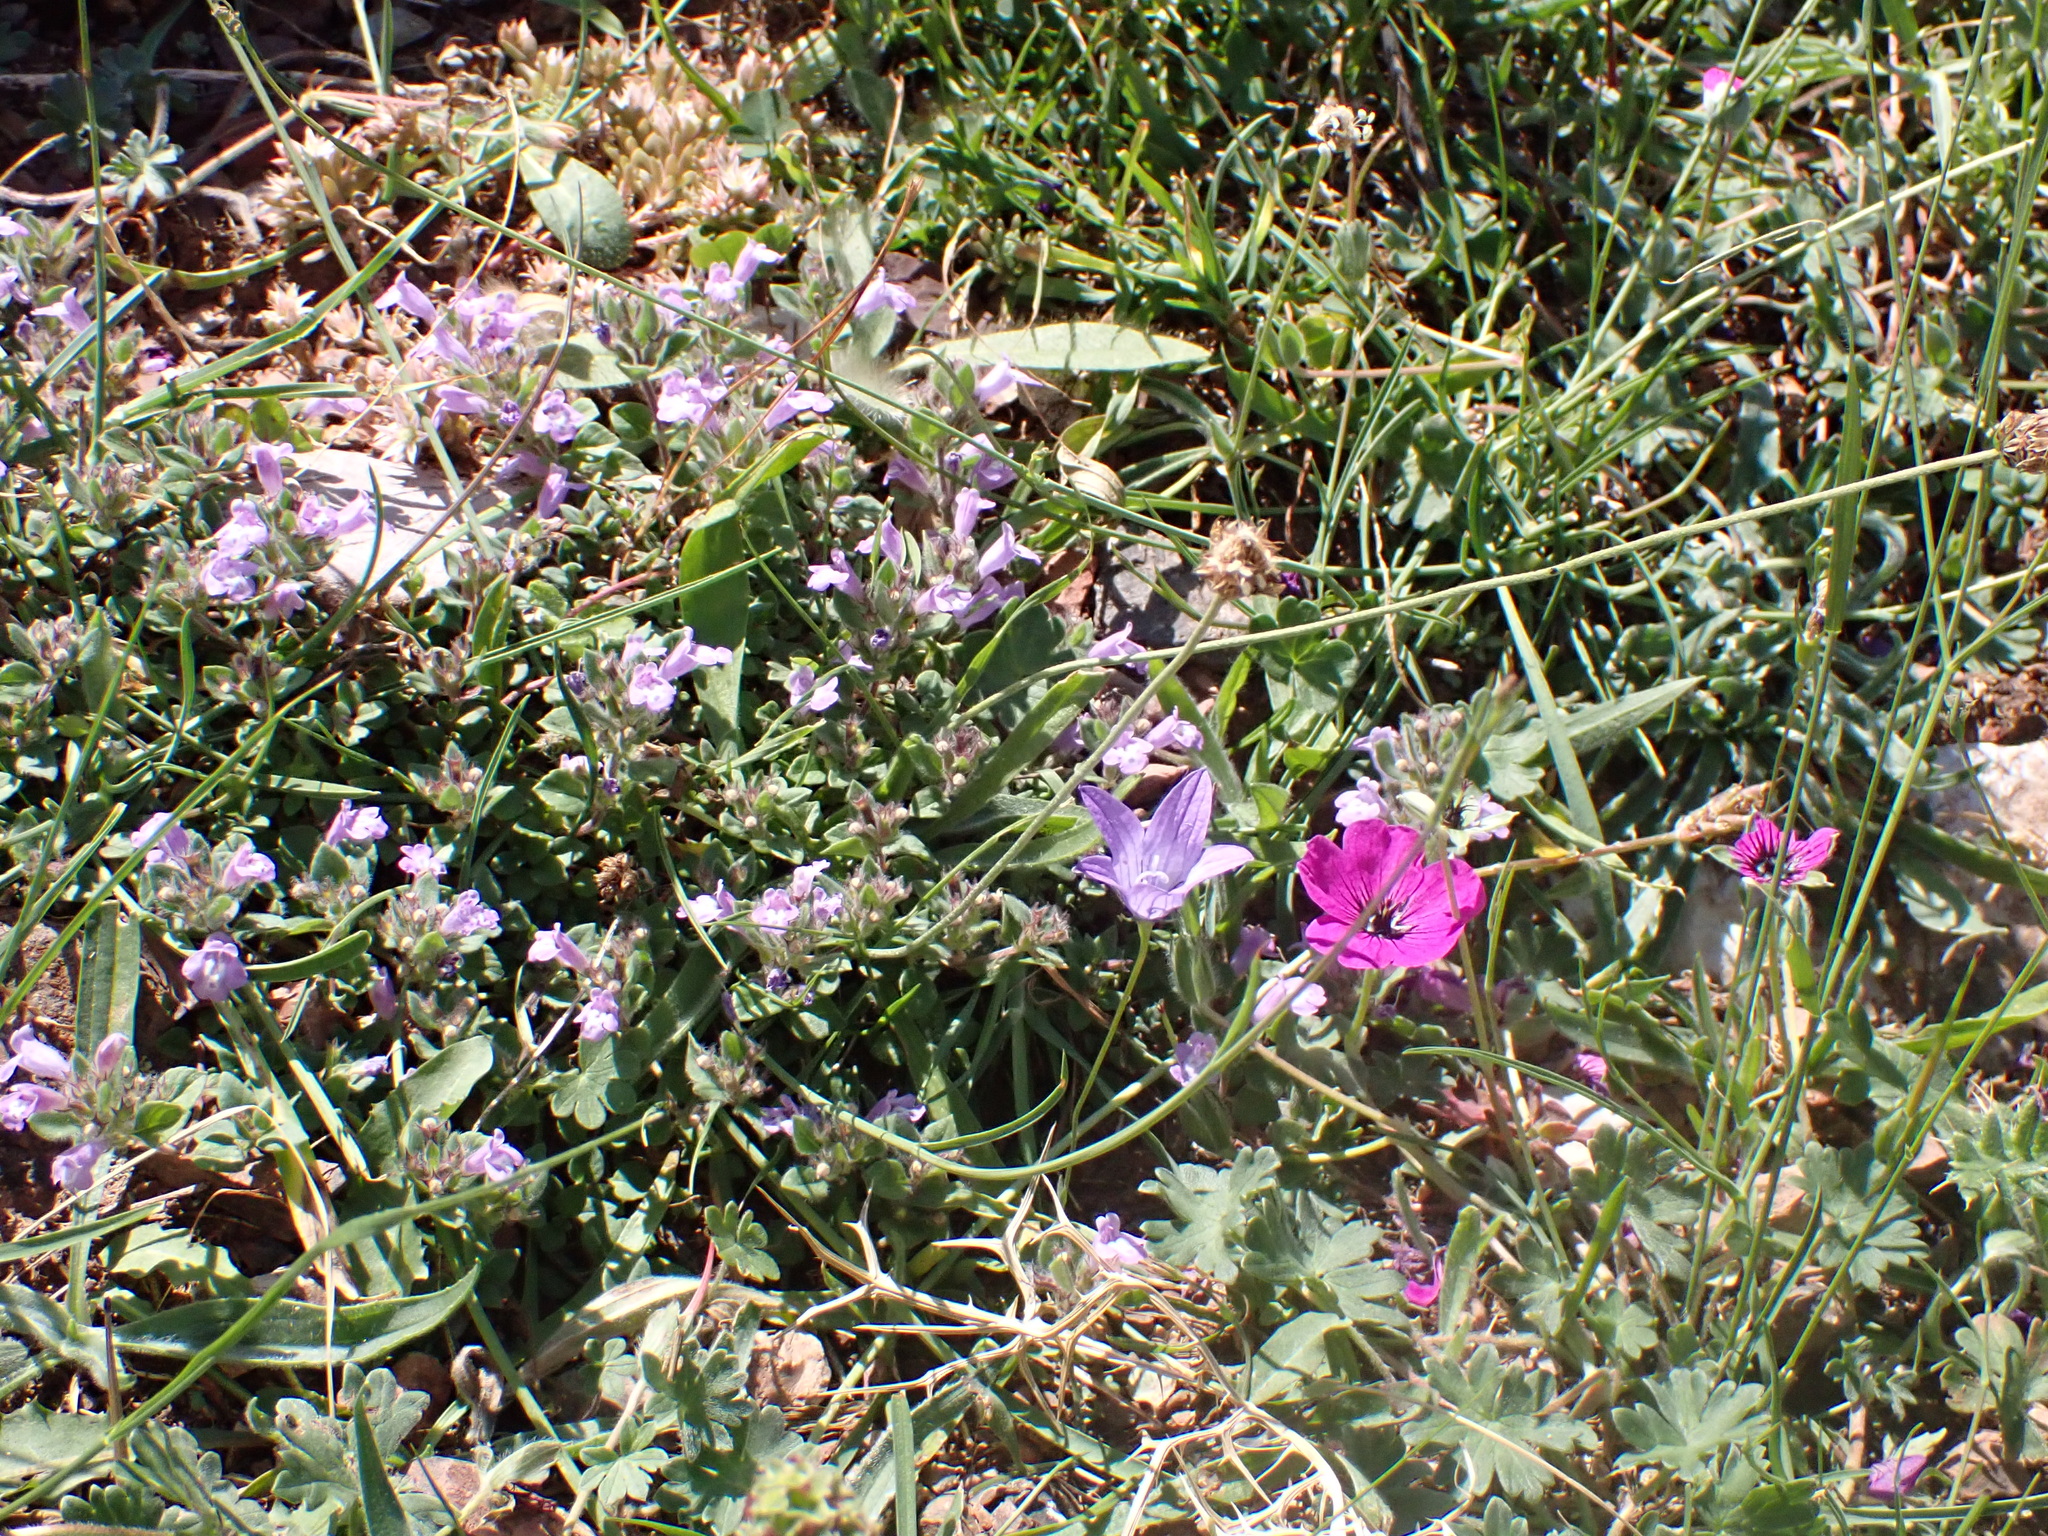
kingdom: Plantae
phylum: Tracheophyta
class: Magnoliopsida
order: Geraniales
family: Geraniaceae
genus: Geranium
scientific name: Geranium subcaulescens
